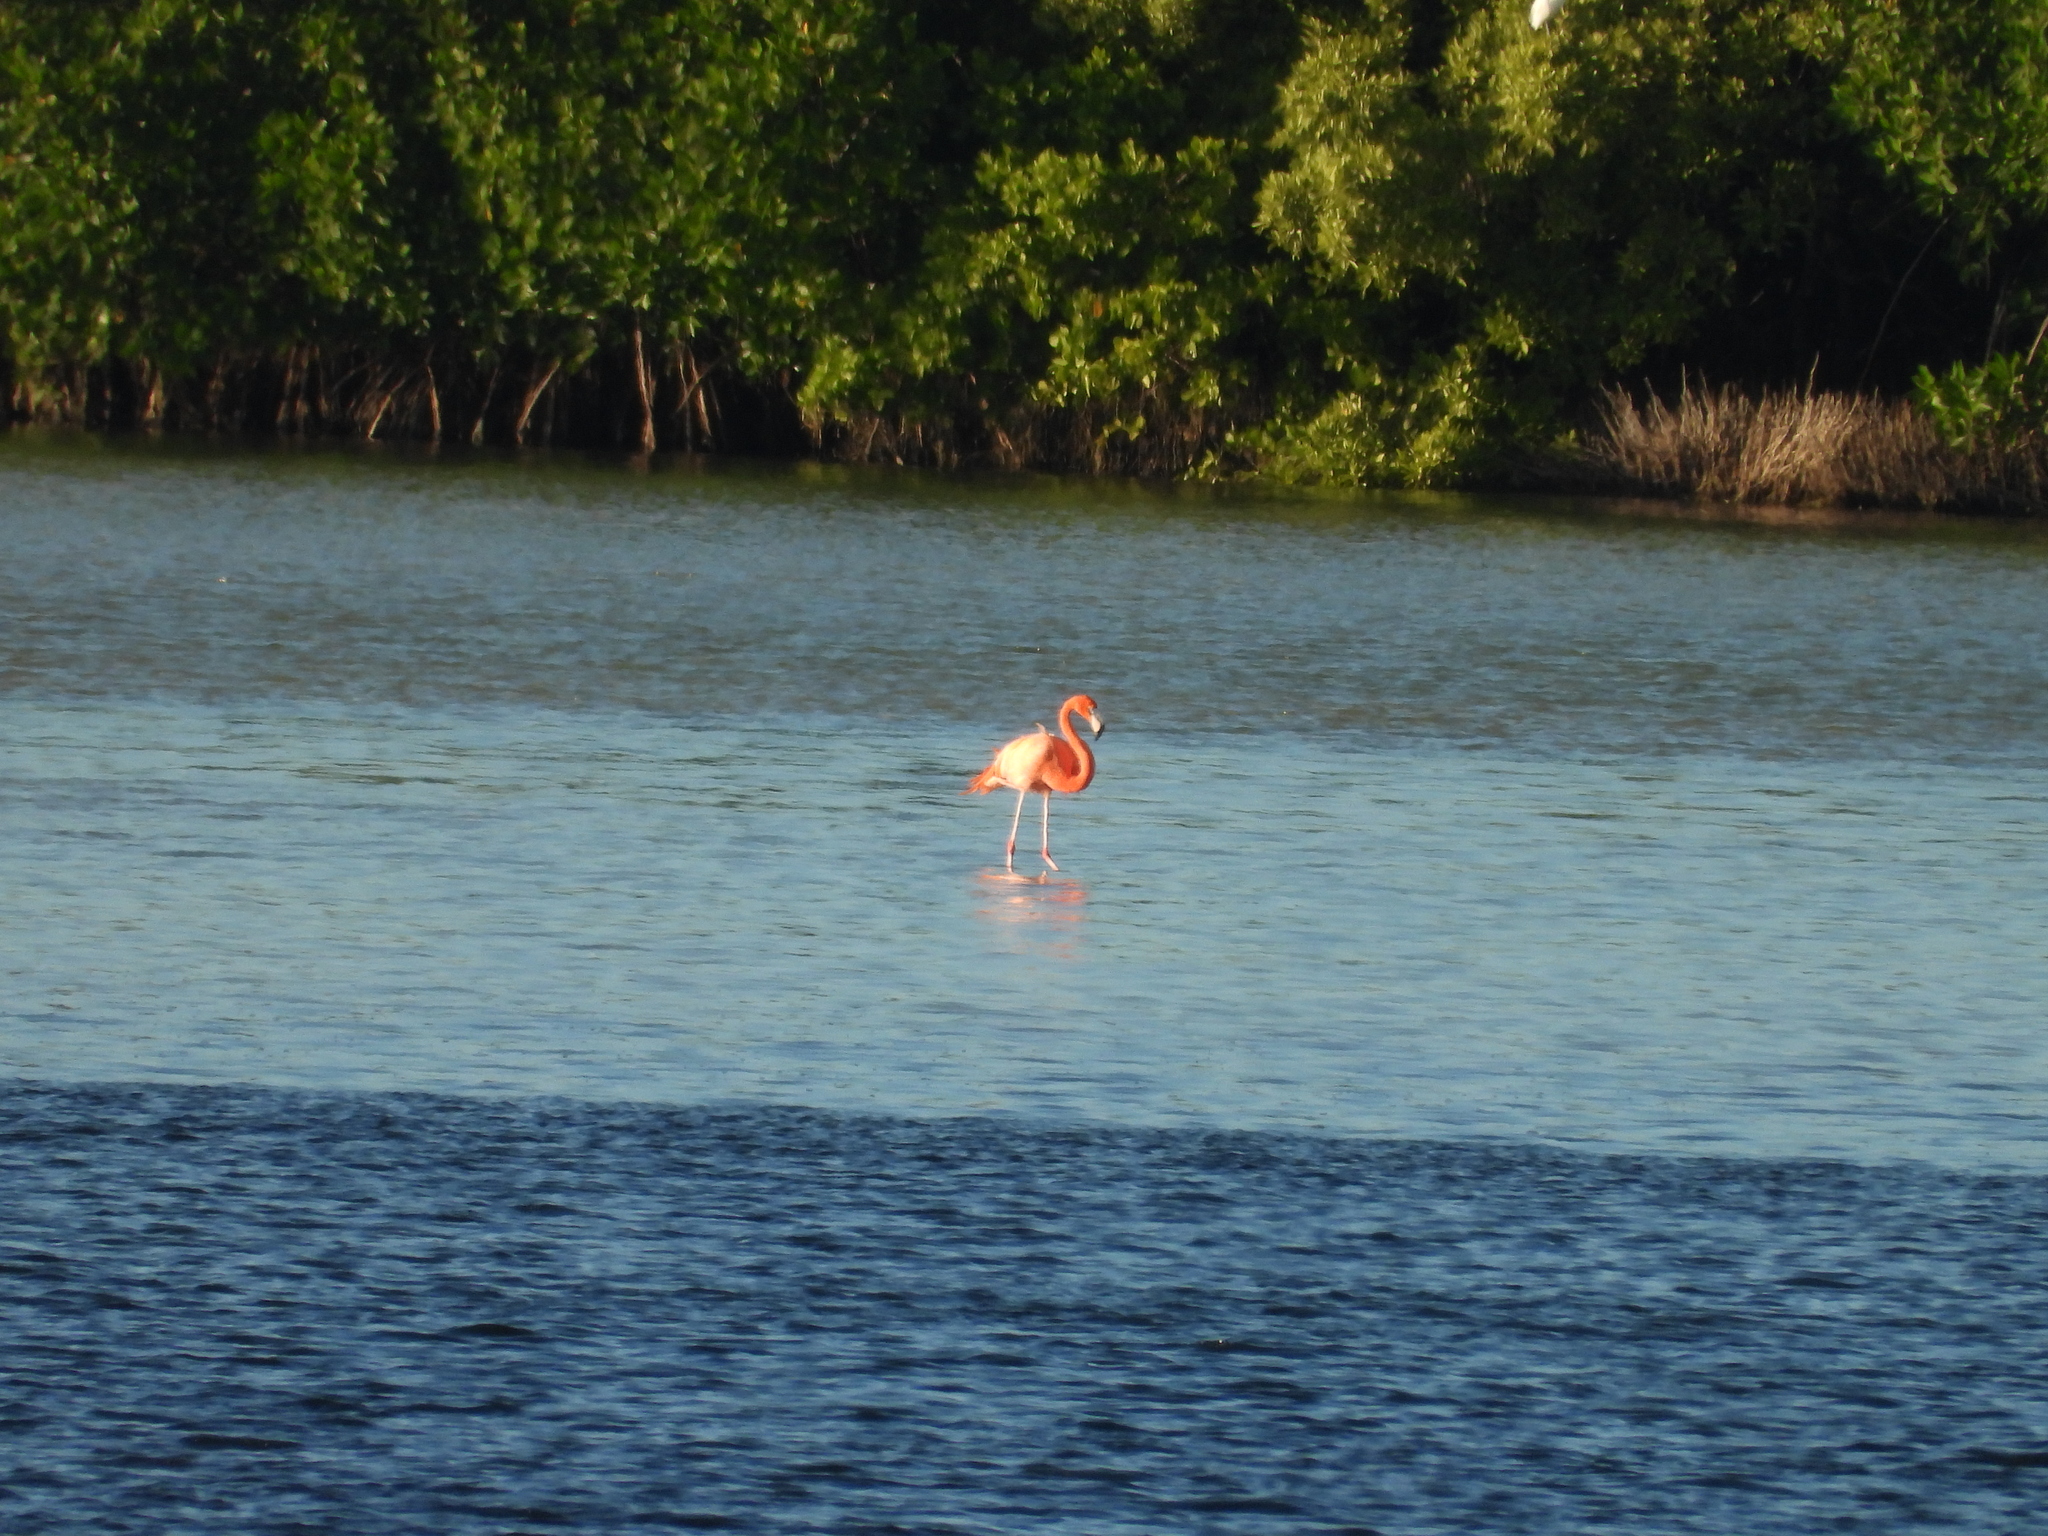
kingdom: Animalia
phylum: Chordata
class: Aves
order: Phoenicopteriformes
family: Phoenicopteridae
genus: Phoenicopterus
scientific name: Phoenicopterus ruber
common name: American flamingo
